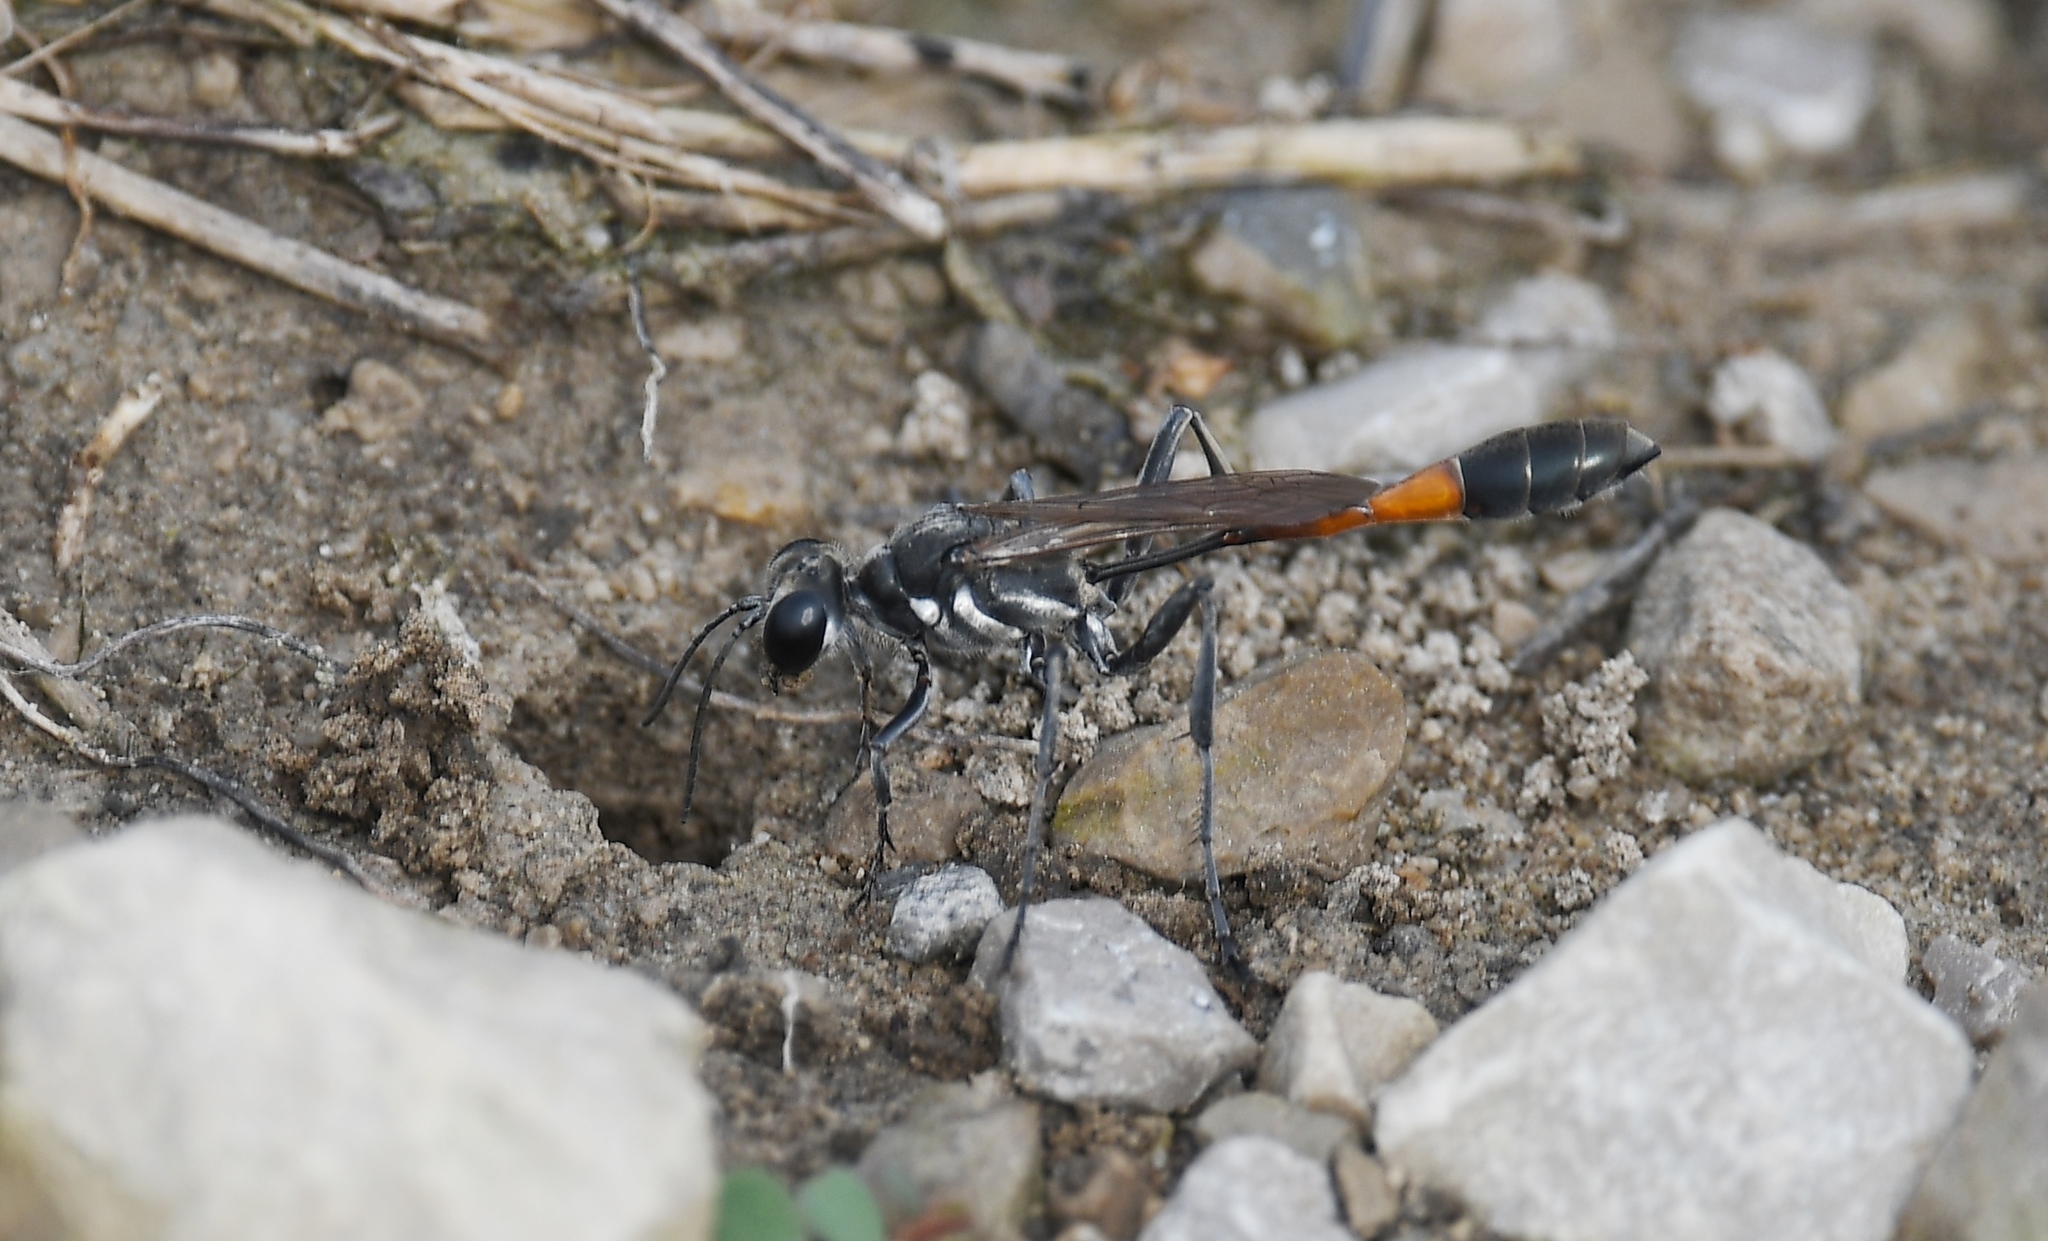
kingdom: Animalia
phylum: Arthropoda
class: Insecta
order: Hymenoptera
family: Sphecidae
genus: Ammophila
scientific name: Ammophila procera
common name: Common thread-waisted wasp
